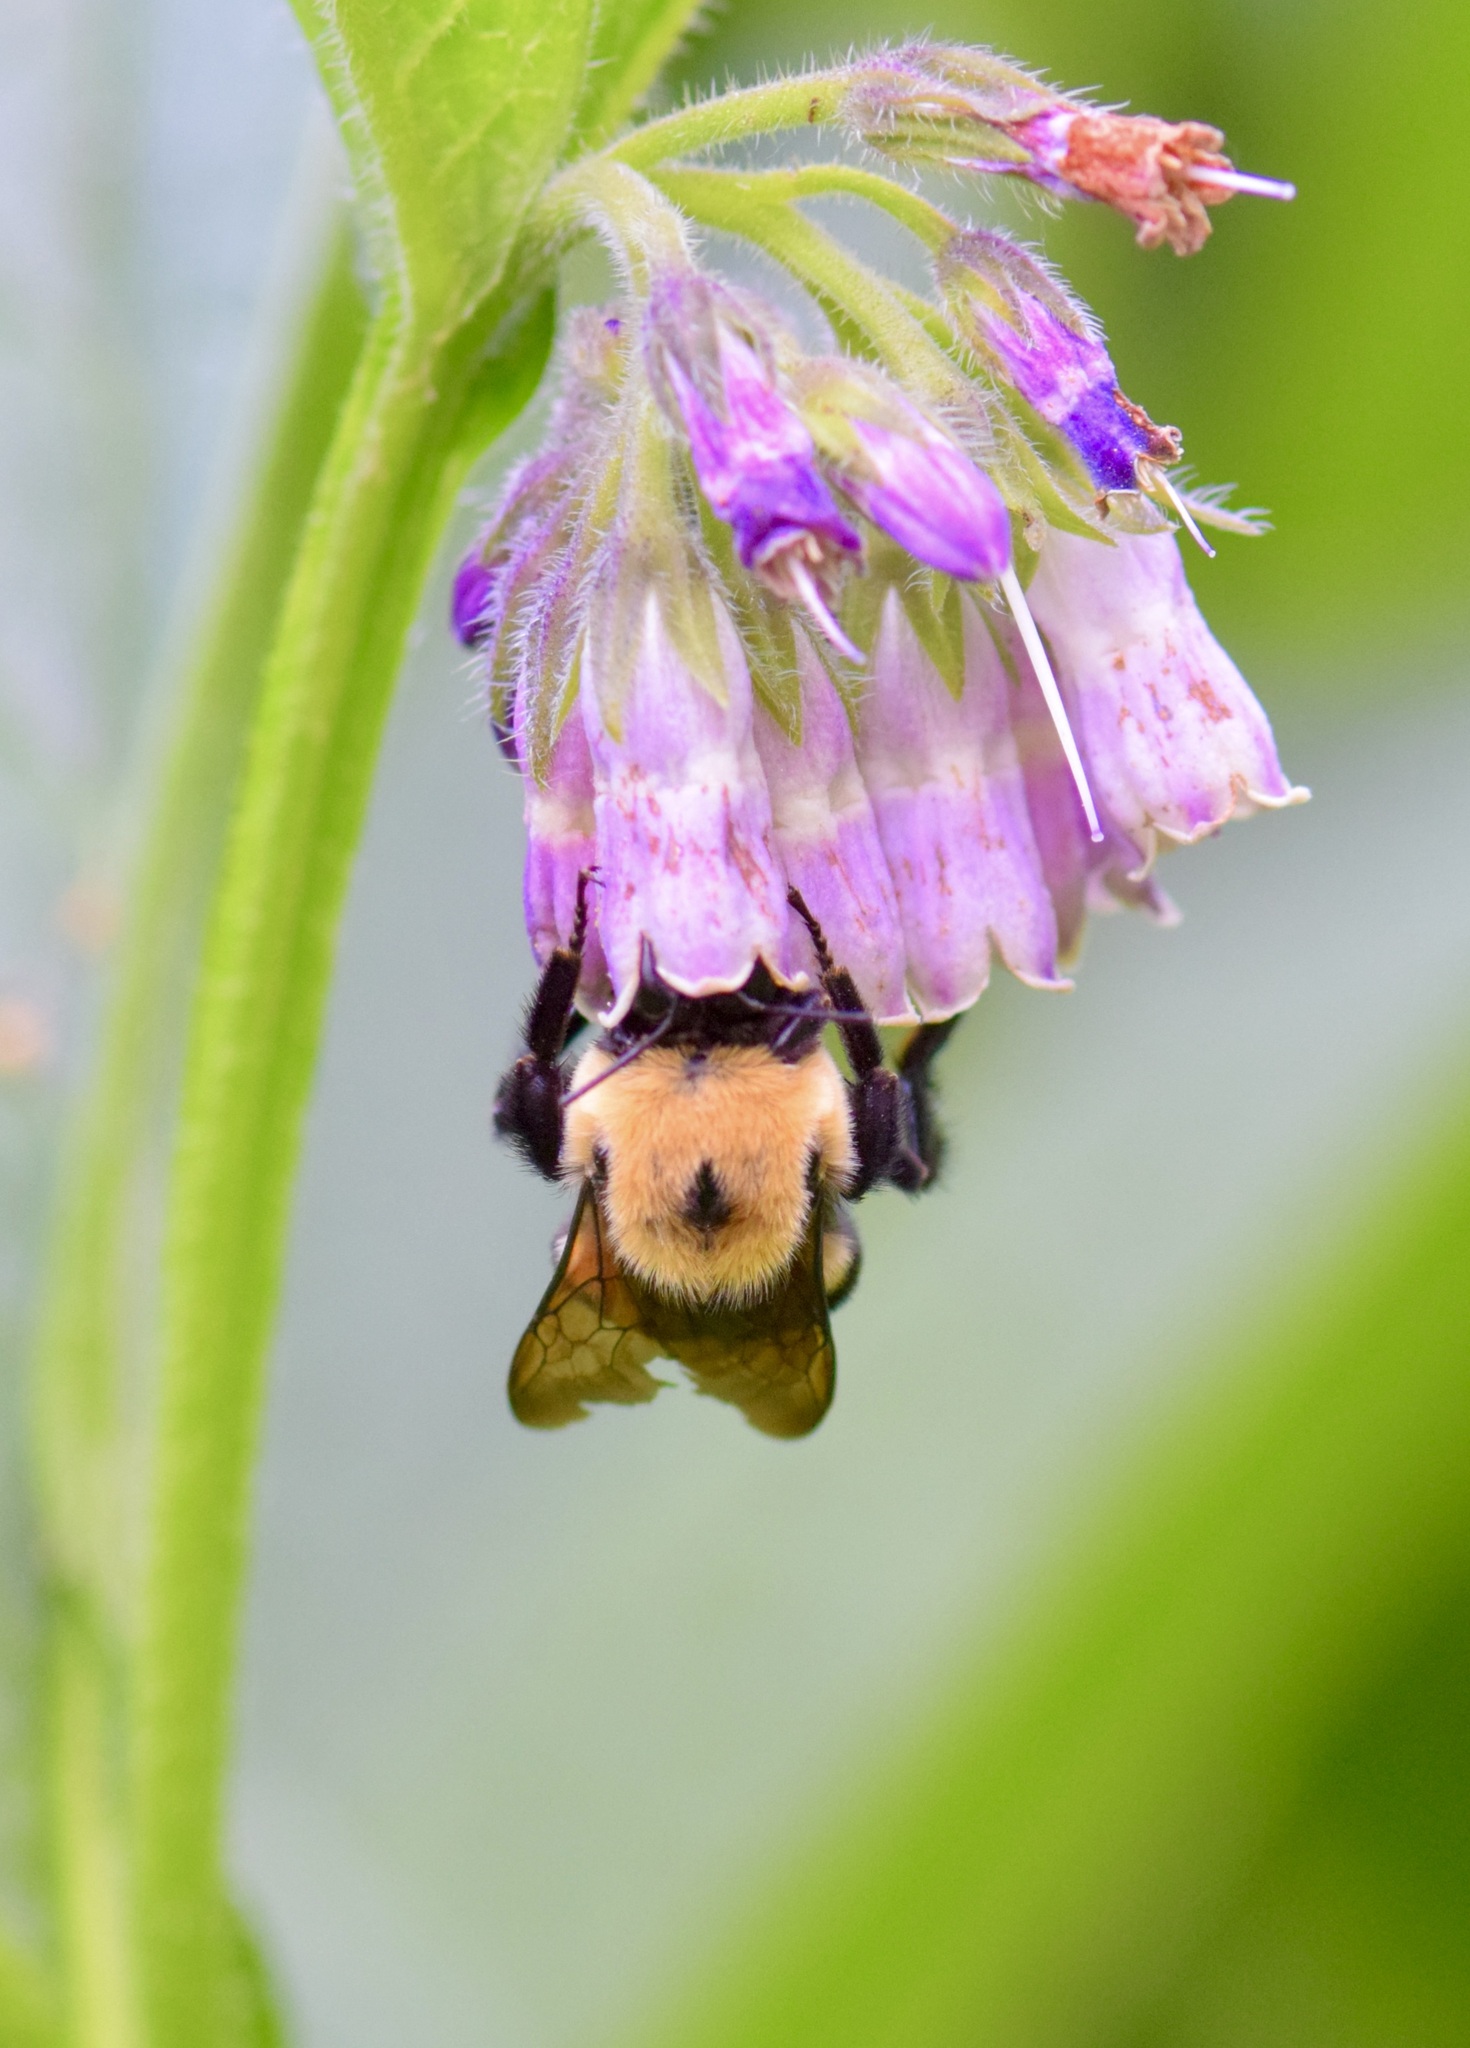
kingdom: Animalia
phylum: Arthropoda
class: Insecta
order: Hymenoptera
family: Apidae
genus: Bombus
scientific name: Bombus griseocollis
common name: Brown-belted bumble bee
